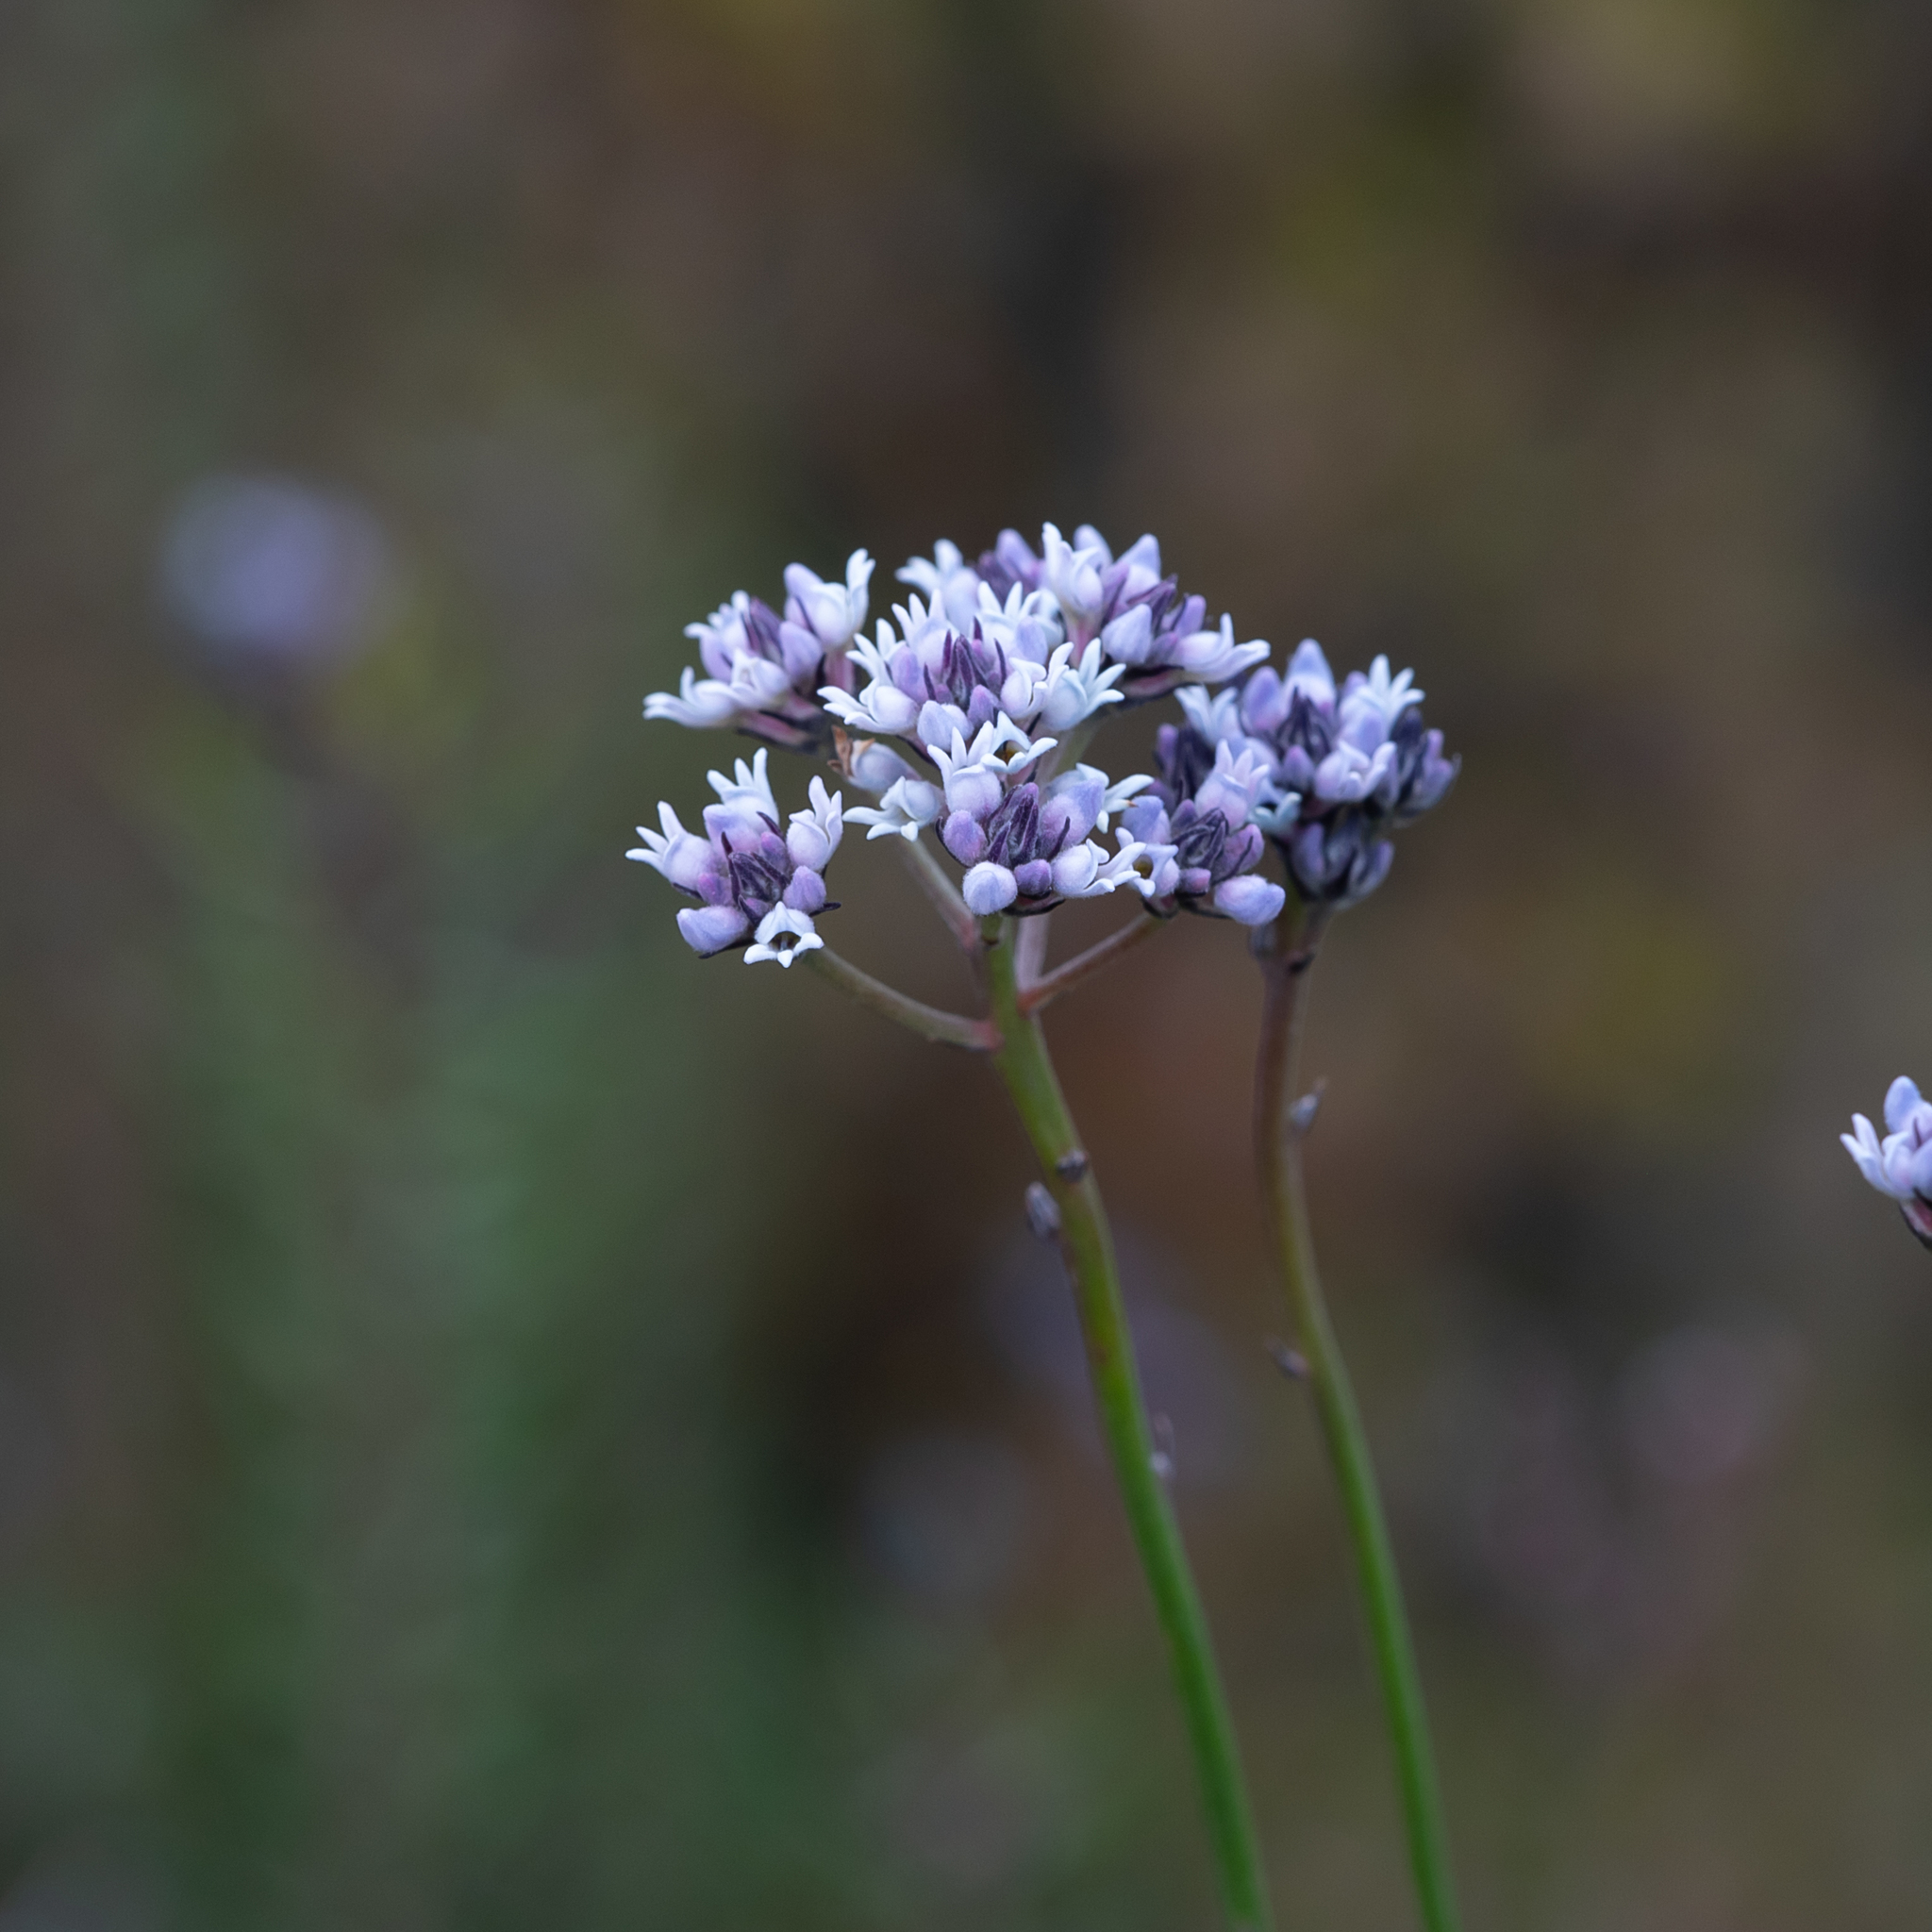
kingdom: Plantae
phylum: Tracheophyta
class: Magnoliopsida
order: Proteales
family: Proteaceae
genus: Conospermum
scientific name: Conospermum patens
